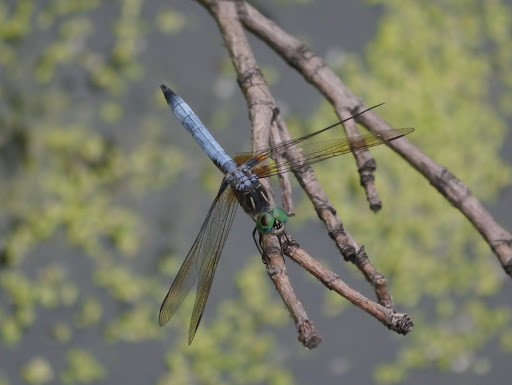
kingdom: Animalia
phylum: Arthropoda
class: Insecta
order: Odonata
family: Libellulidae
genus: Pachydiplax
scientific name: Pachydiplax longipennis
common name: Blue dasher
